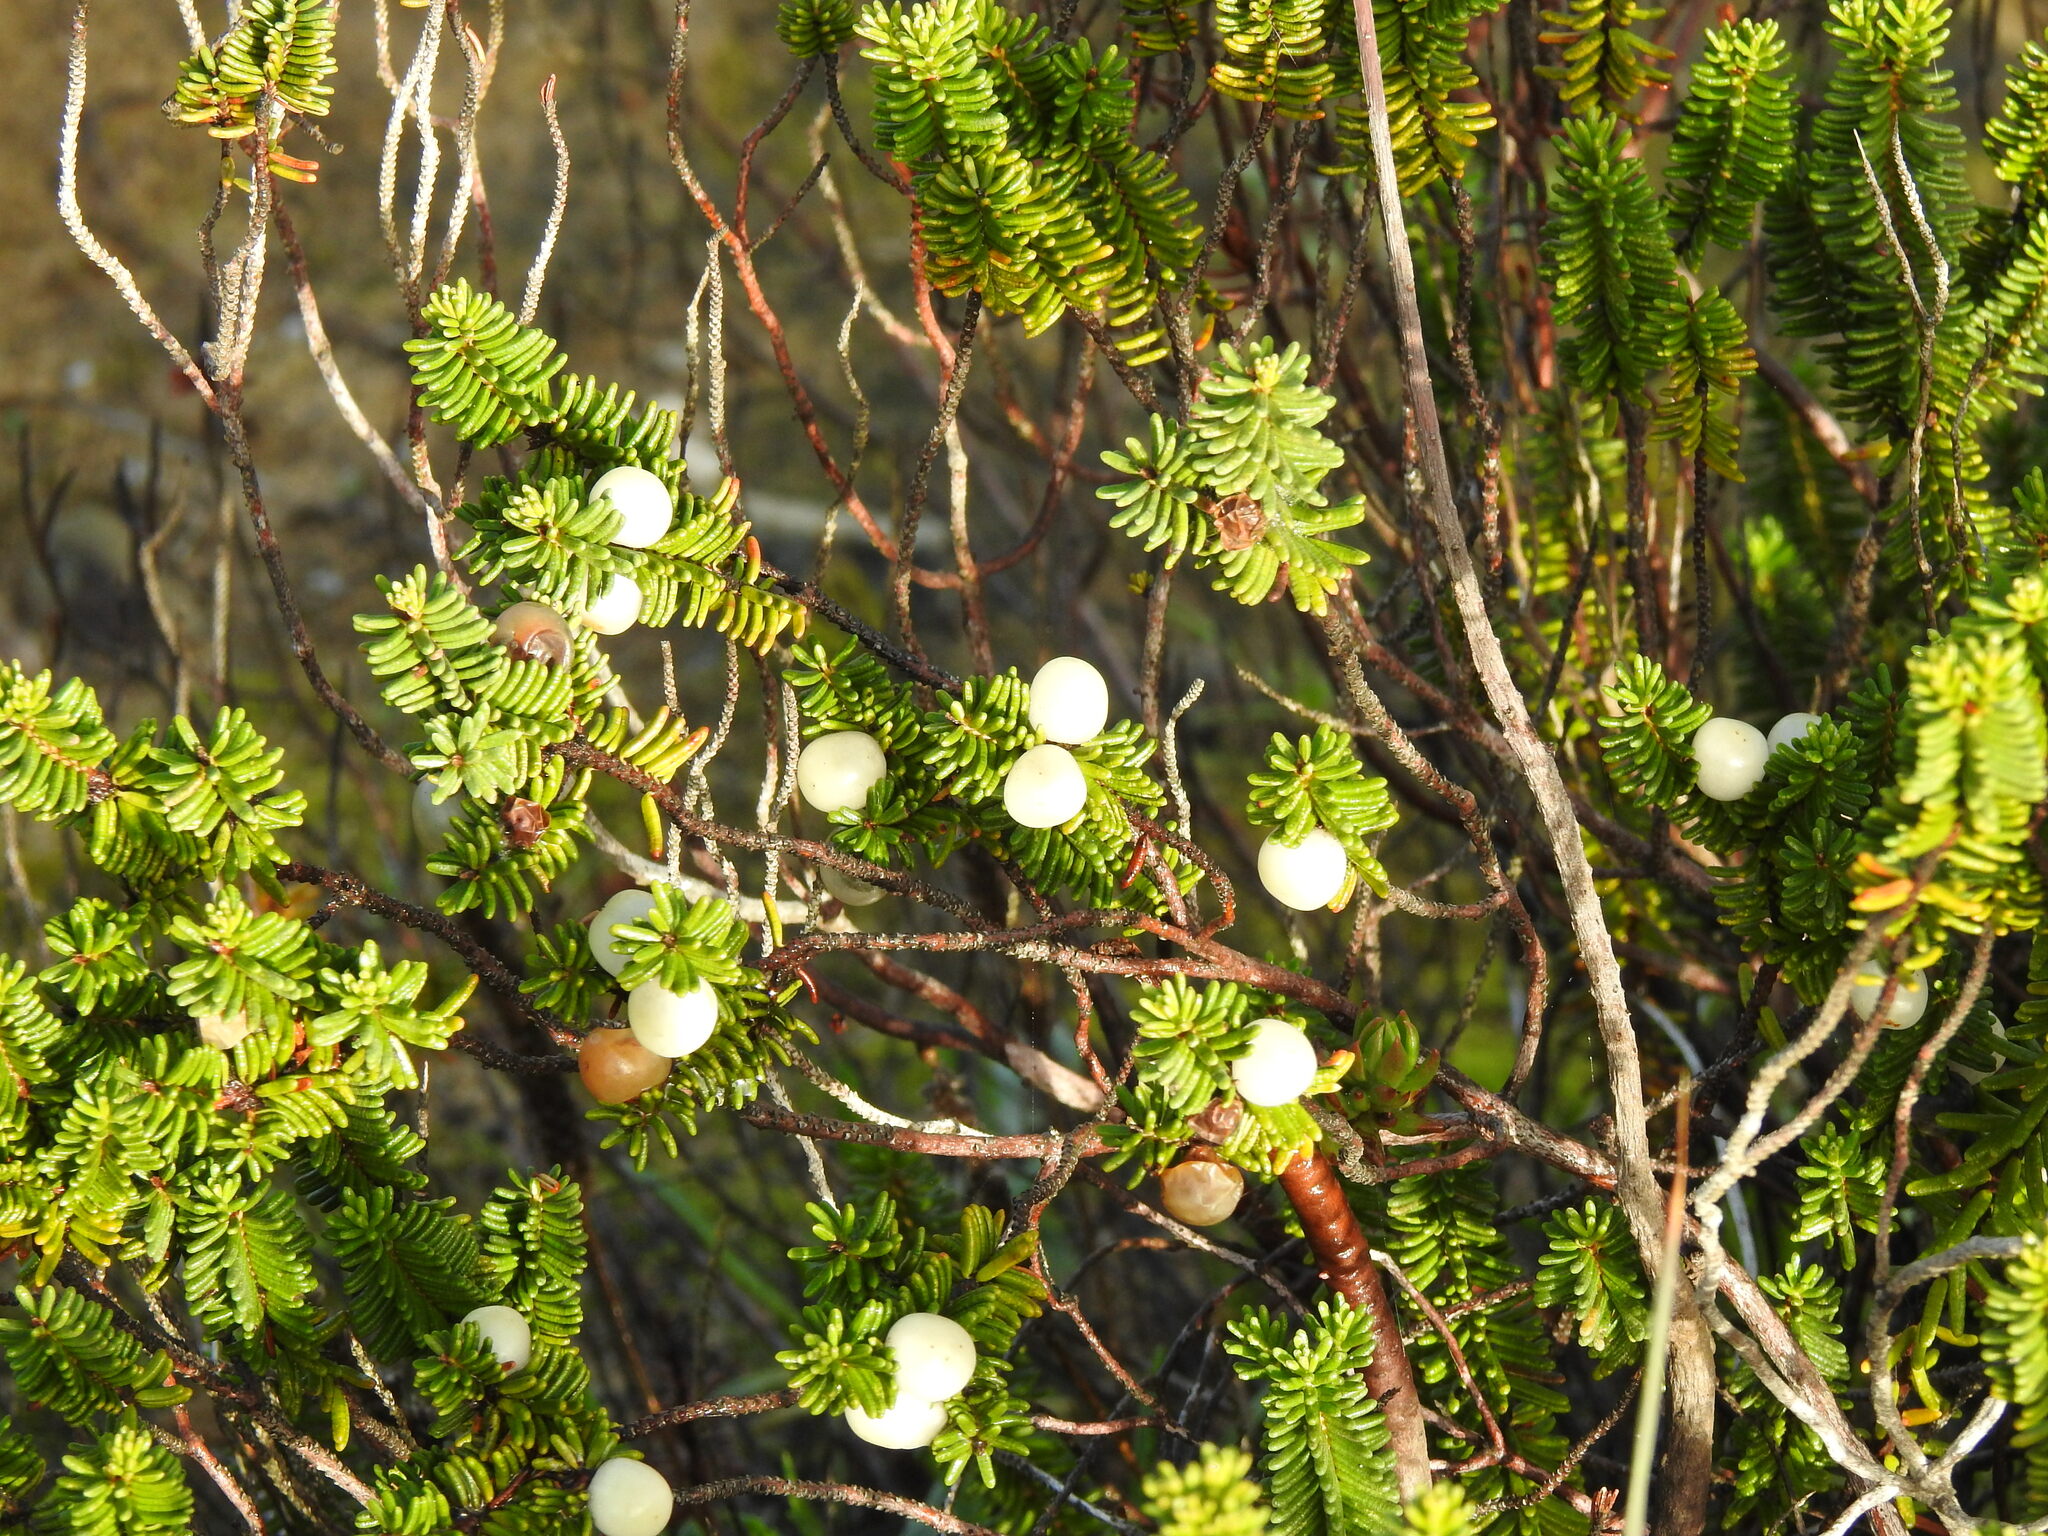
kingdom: Plantae
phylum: Tracheophyta
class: Magnoliopsida
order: Ericales
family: Ericaceae
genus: Corema
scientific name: Corema album
